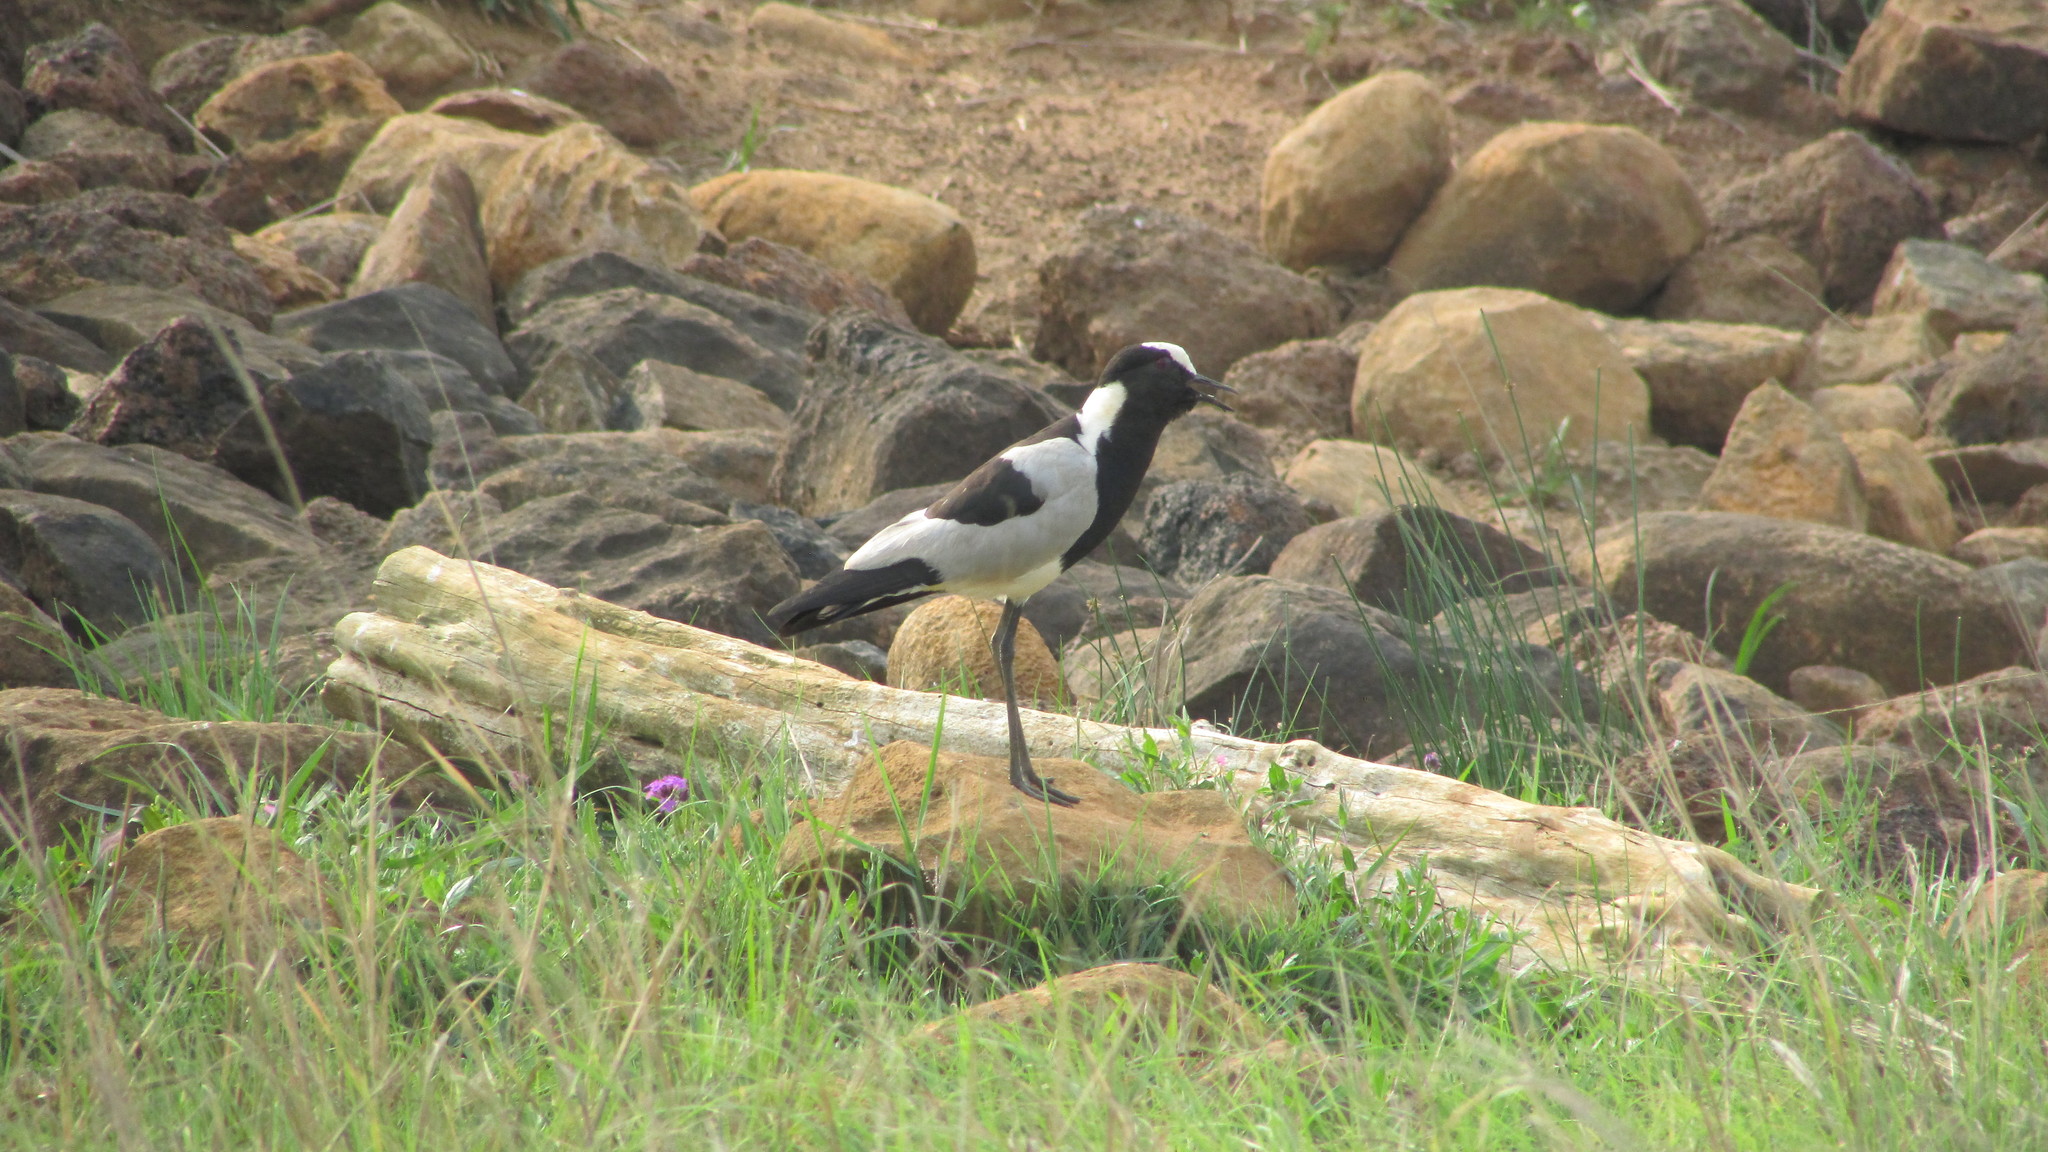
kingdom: Animalia
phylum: Chordata
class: Aves
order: Charadriiformes
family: Charadriidae
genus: Vanellus
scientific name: Vanellus armatus
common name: Blacksmith lapwing
